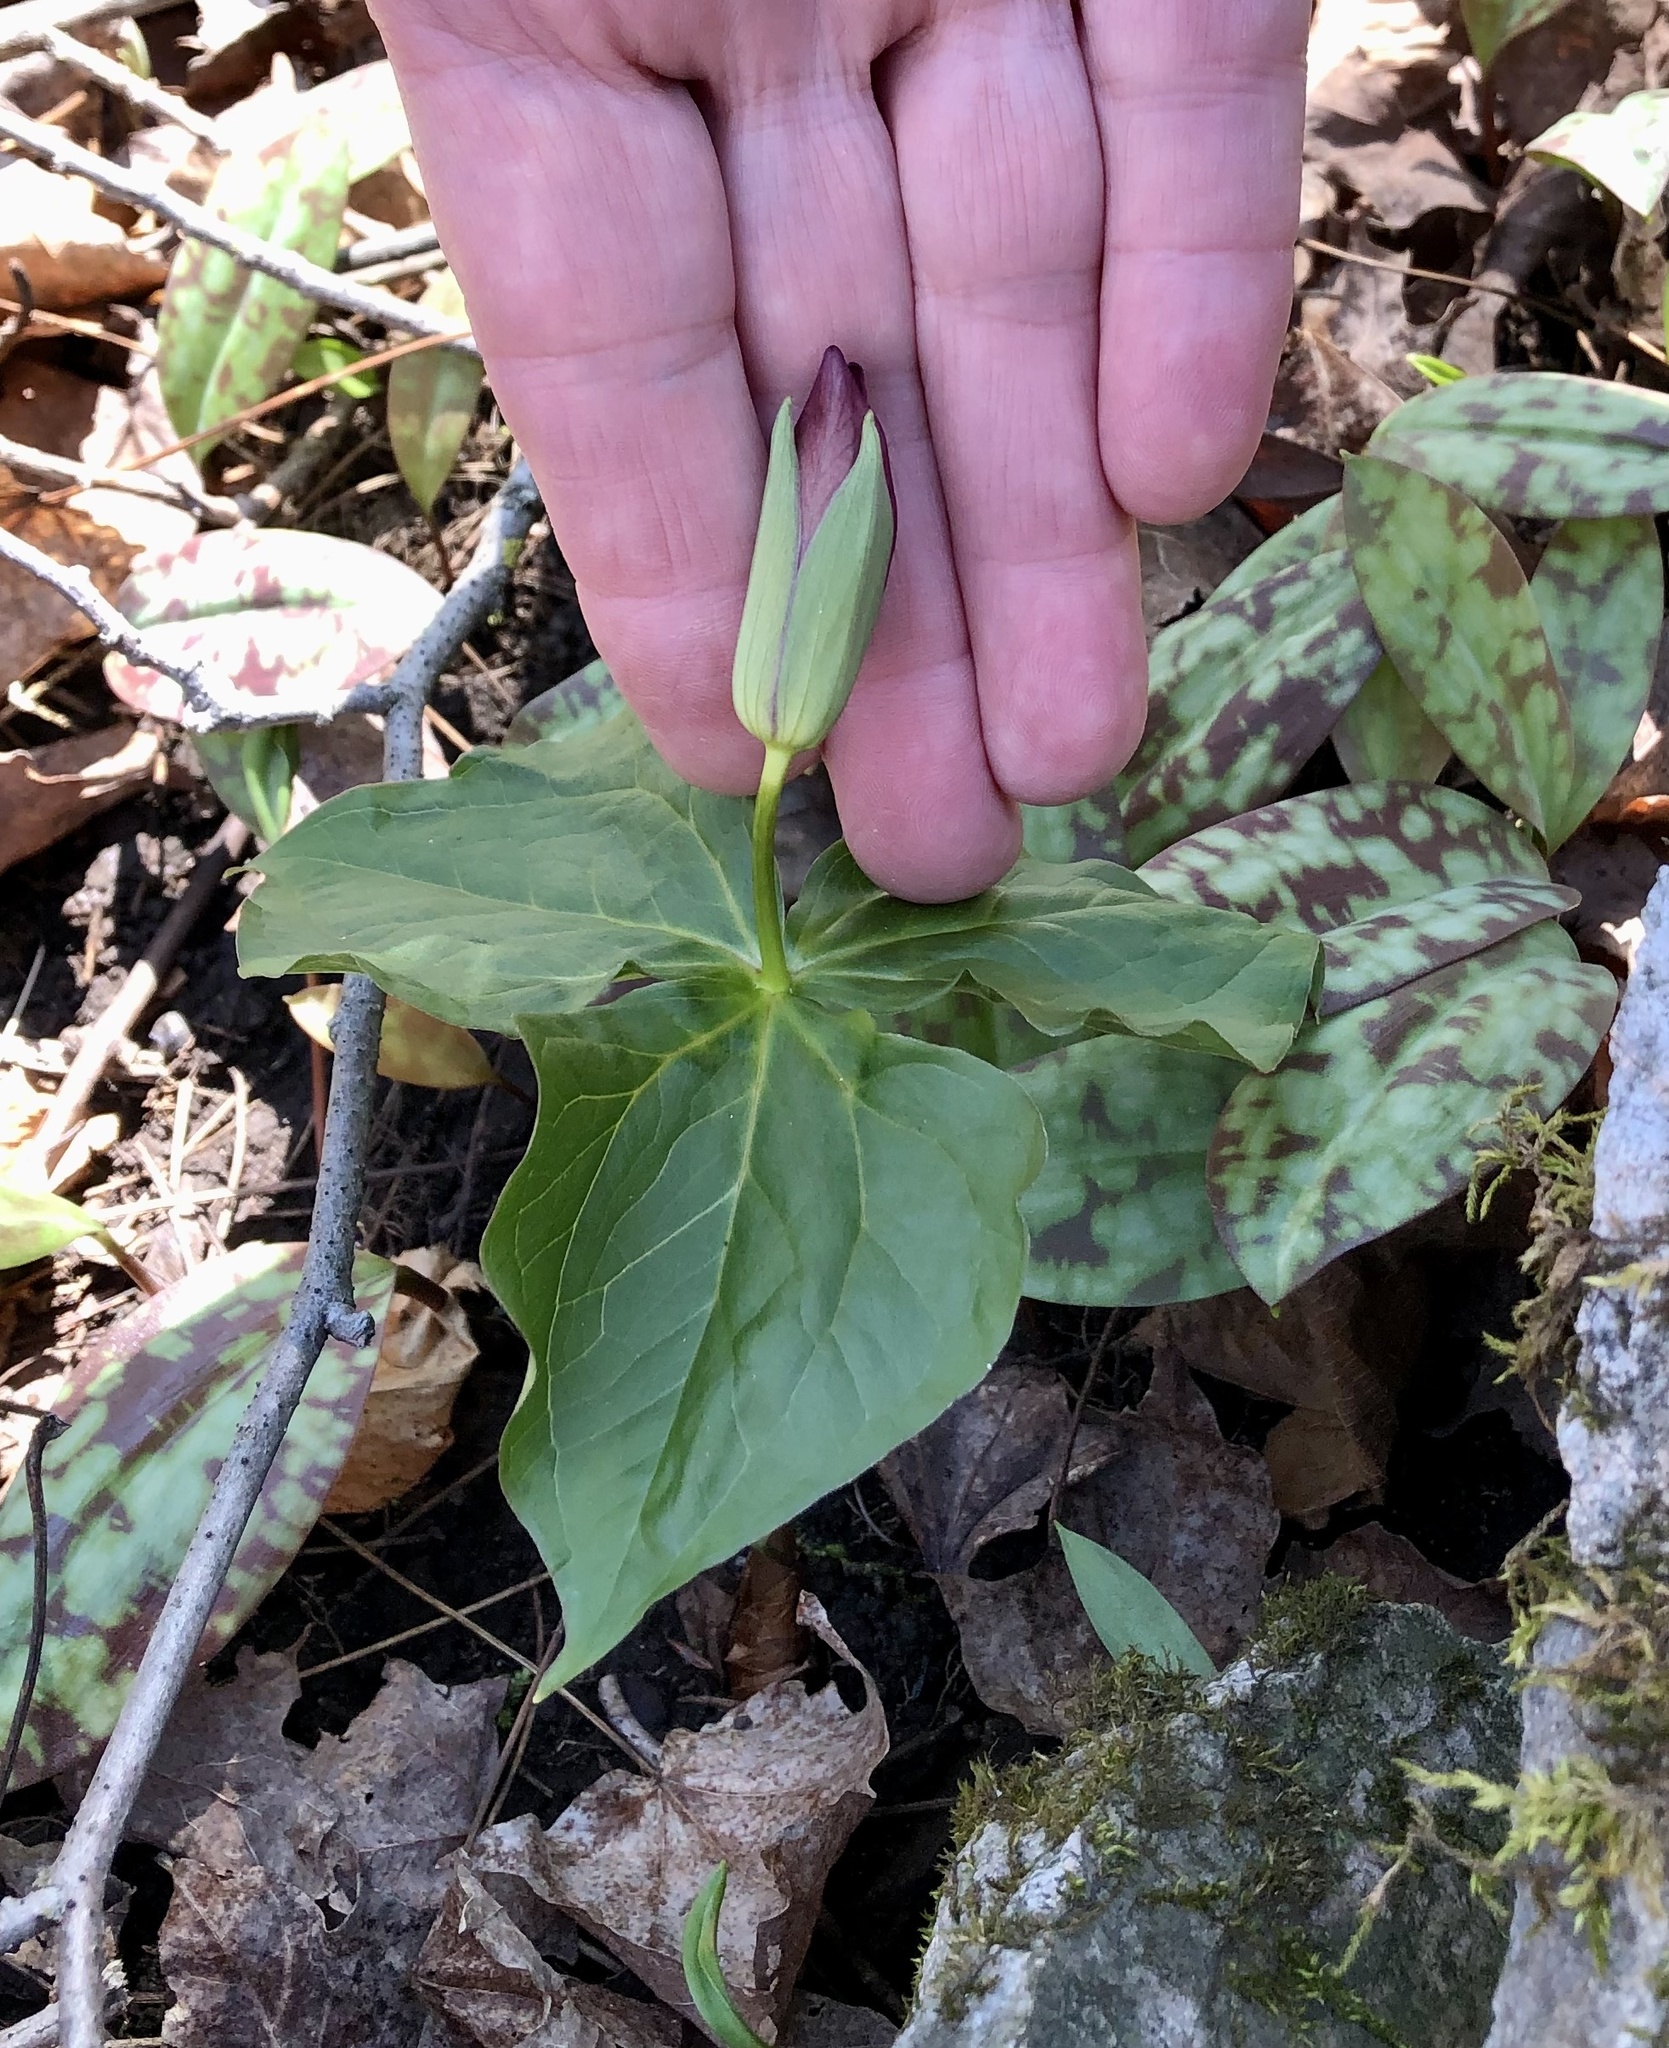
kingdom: Plantae
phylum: Tracheophyta
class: Liliopsida
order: Liliales
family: Melanthiaceae
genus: Trillium
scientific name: Trillium erectum
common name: Purple trillium
